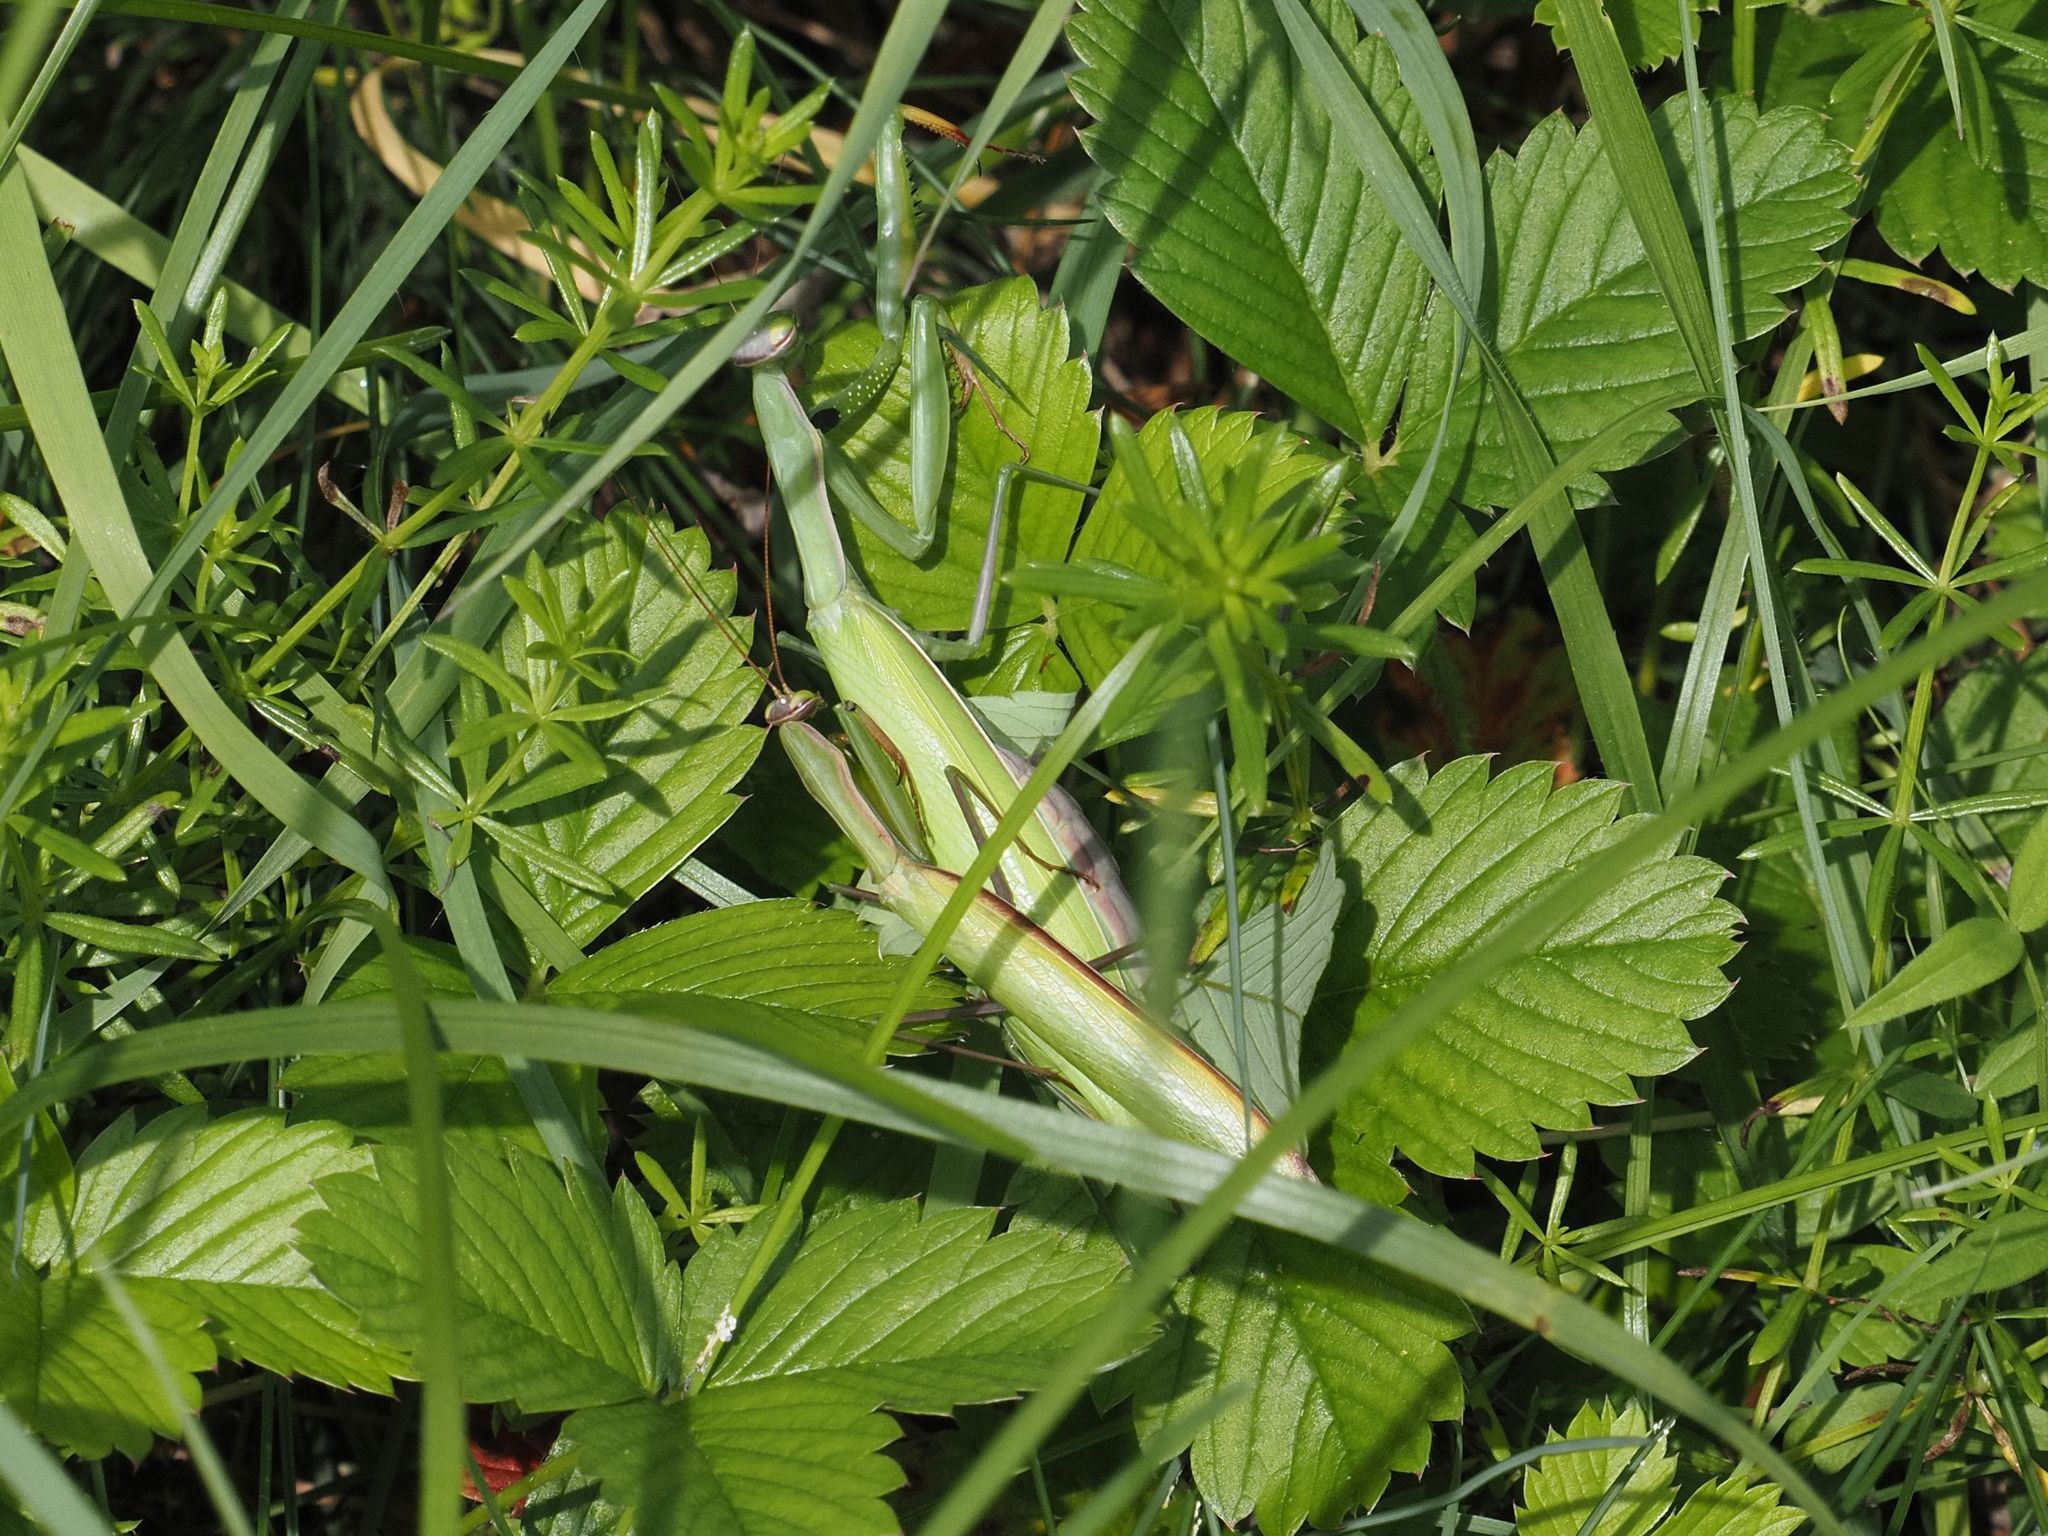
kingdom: Animalia
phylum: Arthropoda
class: Insecta
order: Mantodea
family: Mantidae
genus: Mantis
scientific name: Mantis religiosa
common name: Praying mantis
